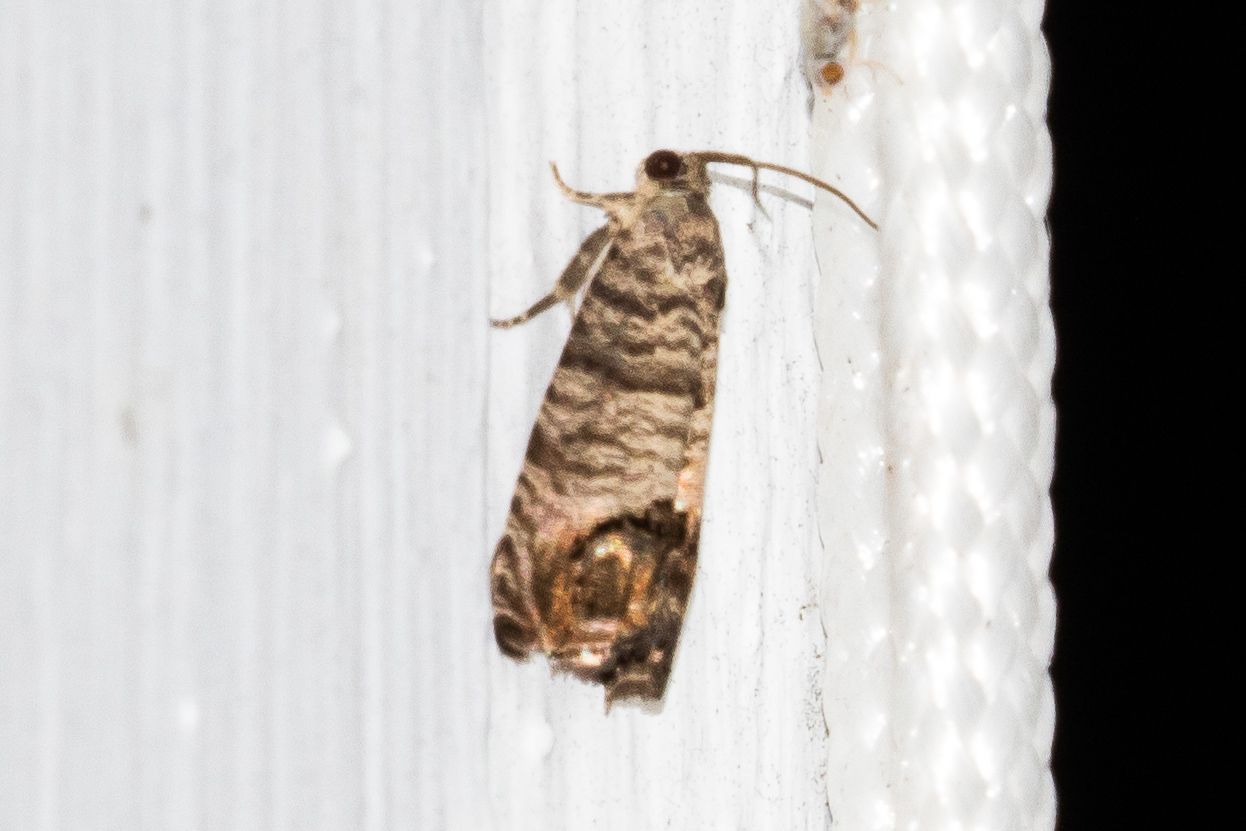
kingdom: Animalia
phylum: Arthropoda
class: Insecta
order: Lepidoptera
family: Tortricidae
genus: Cydia
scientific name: Cydia pomonella
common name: Codling moth
